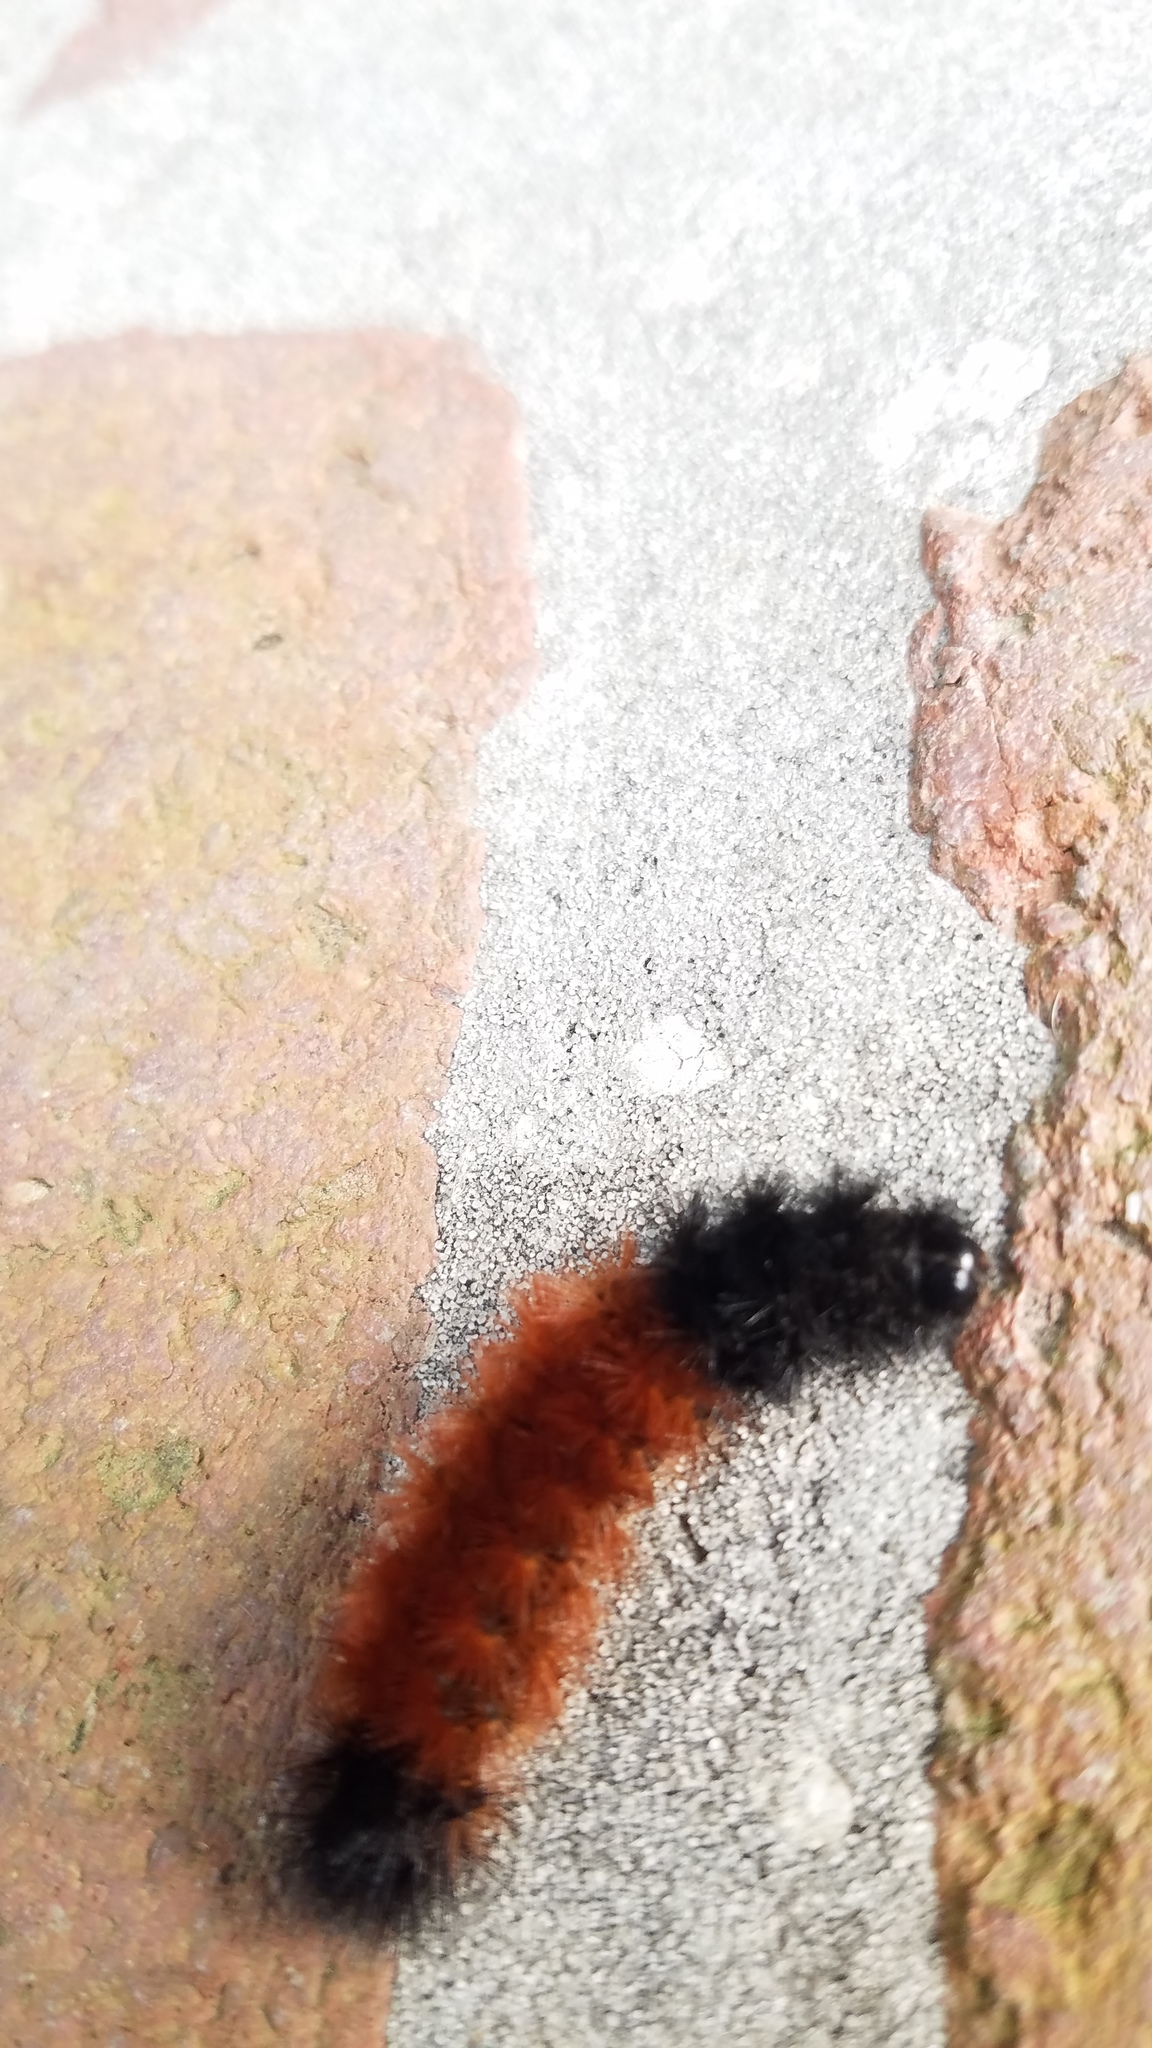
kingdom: Animalia
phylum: Arthropoda
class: Insecta
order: Lepidoptera
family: Erebidae
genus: Pyrrharctia
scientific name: Pyrrharctia isabella
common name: Isabella tiger moth
